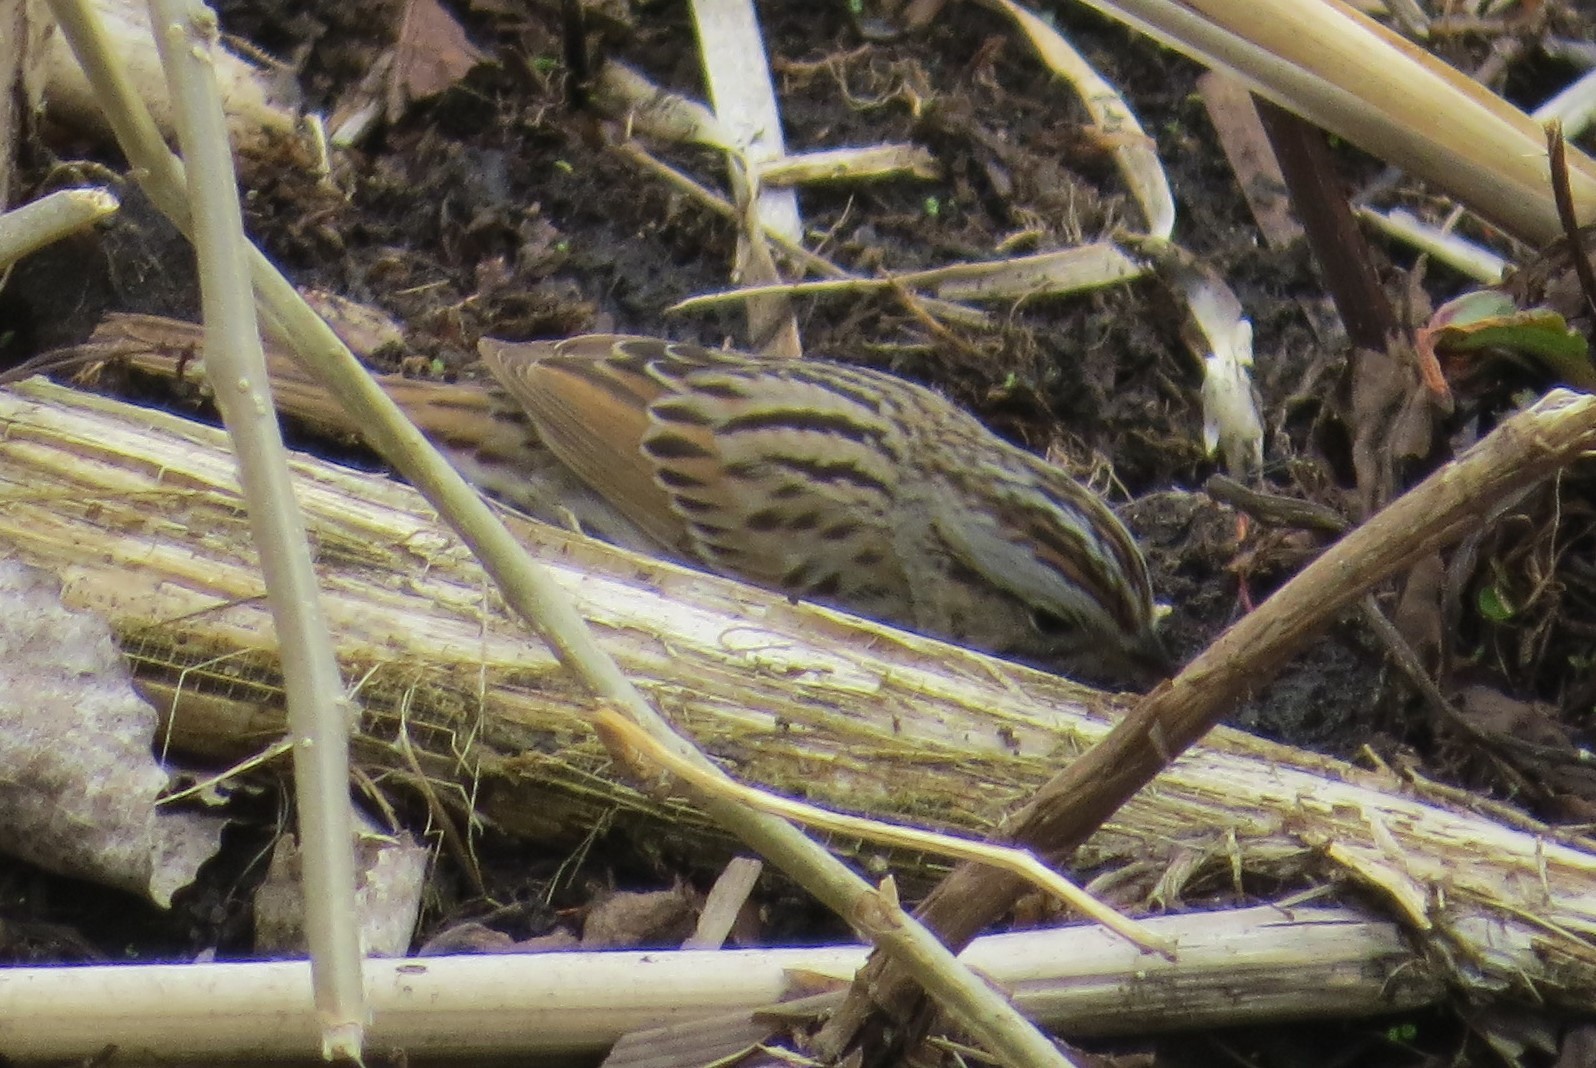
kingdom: Animalia
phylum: Chordata
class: Aves
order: Passeriformes
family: Passerellidae
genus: Melospiza
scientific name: Melospiza lincolnii
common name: Lincoln's sparrow
